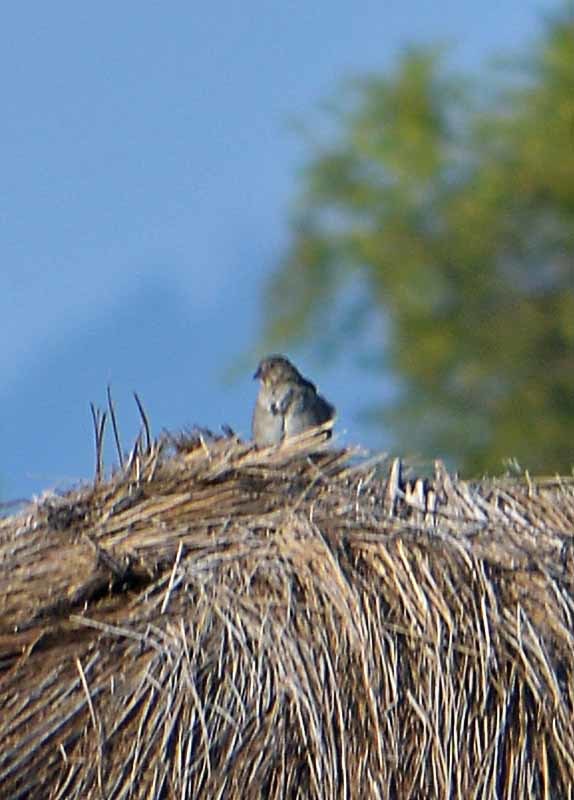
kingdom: Animalia
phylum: Chordata
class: Aves
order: Passeriformes
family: Passerellidae
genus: Melozone
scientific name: Melozone fusca
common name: Canyon towhee
